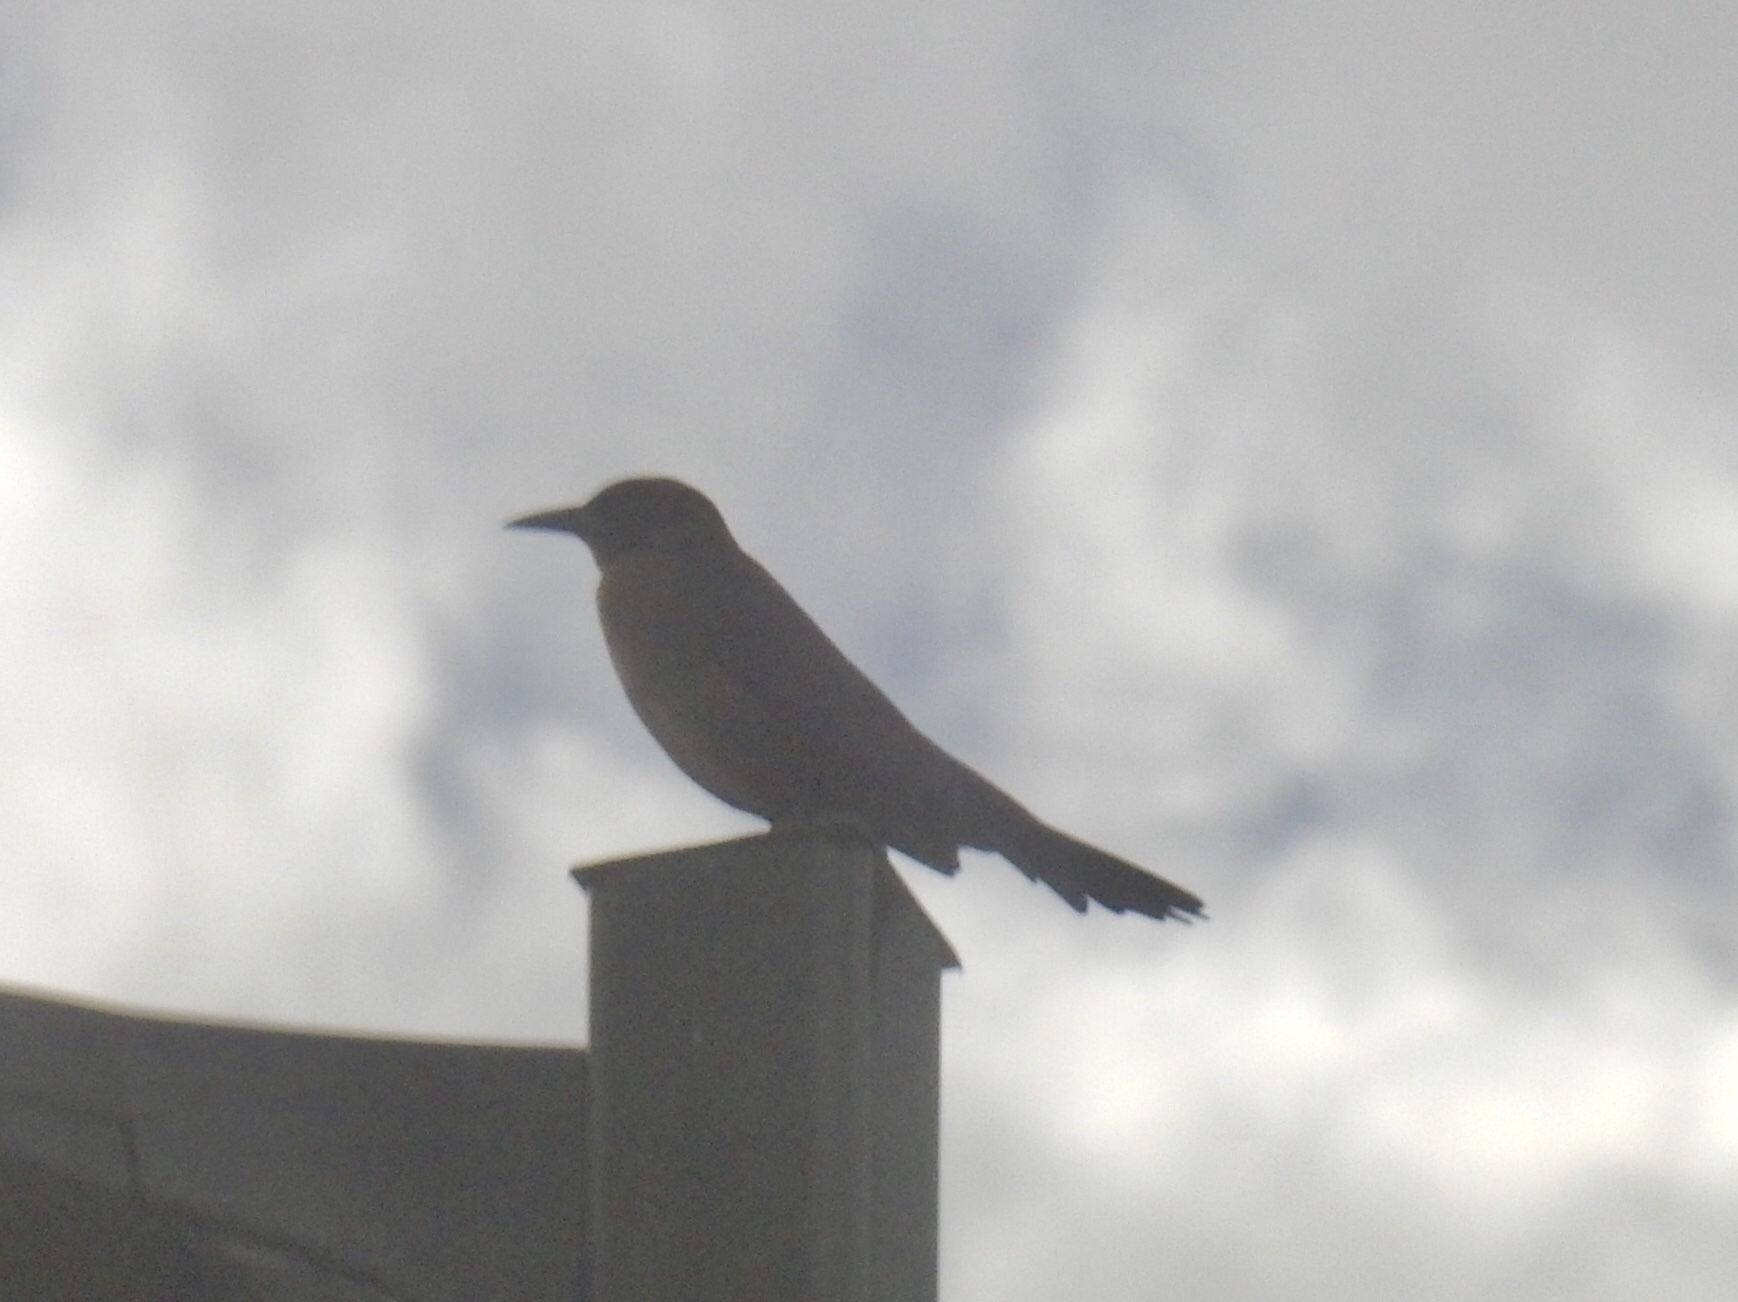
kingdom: Animalia
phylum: Chordata
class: Aves
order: Passeriformes
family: Icteridae
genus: Quiscalus
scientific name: Quiscalus mexicanus
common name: Great-tailed grackle
